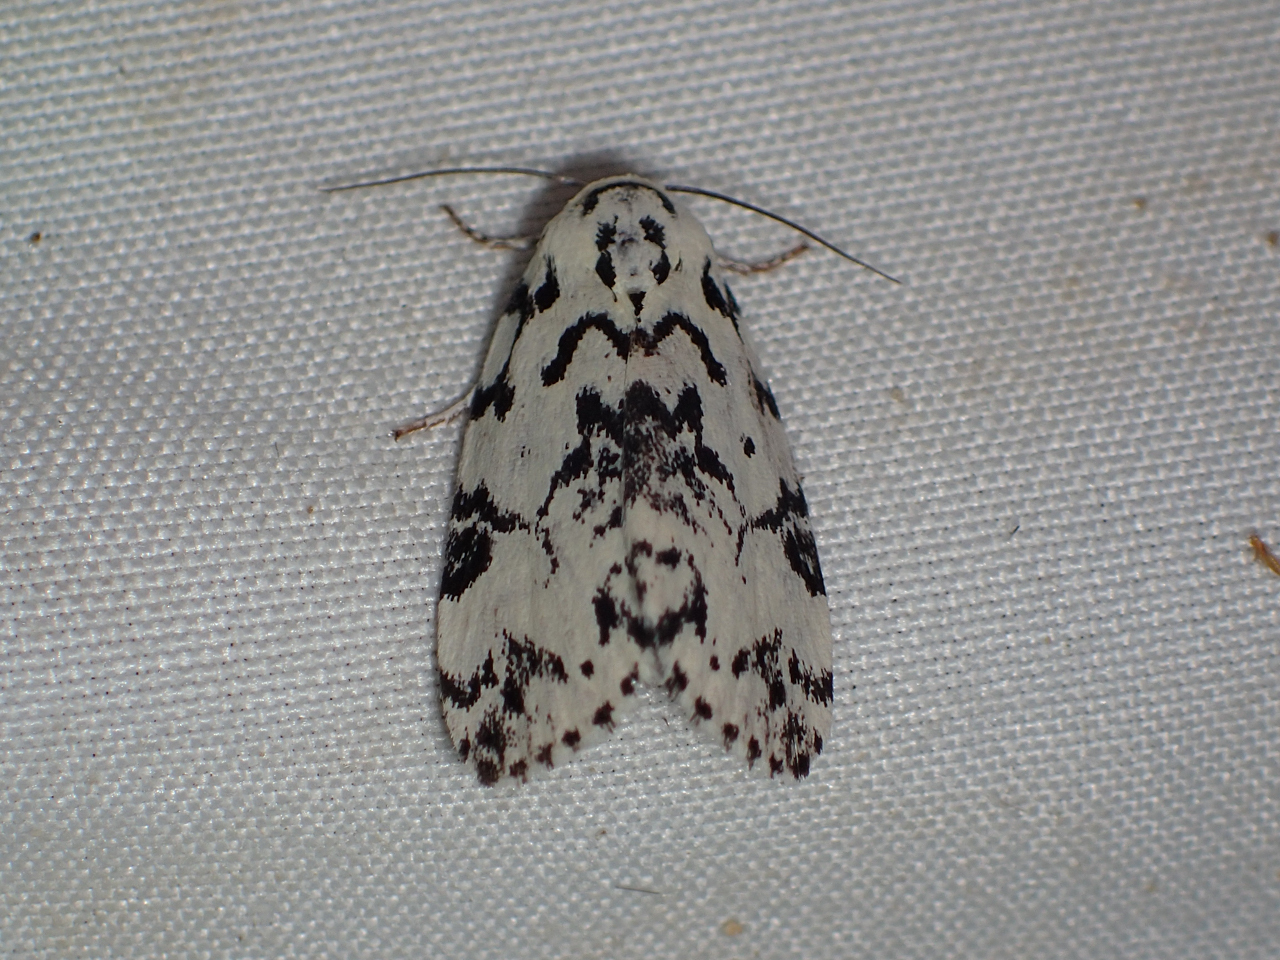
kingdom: Animalia
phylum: Arthropoda
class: Insecta
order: Lepidoptera
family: Noctuidae
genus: Polygrammate
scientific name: Polygrammate hebraeicum
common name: Hebrew moth
